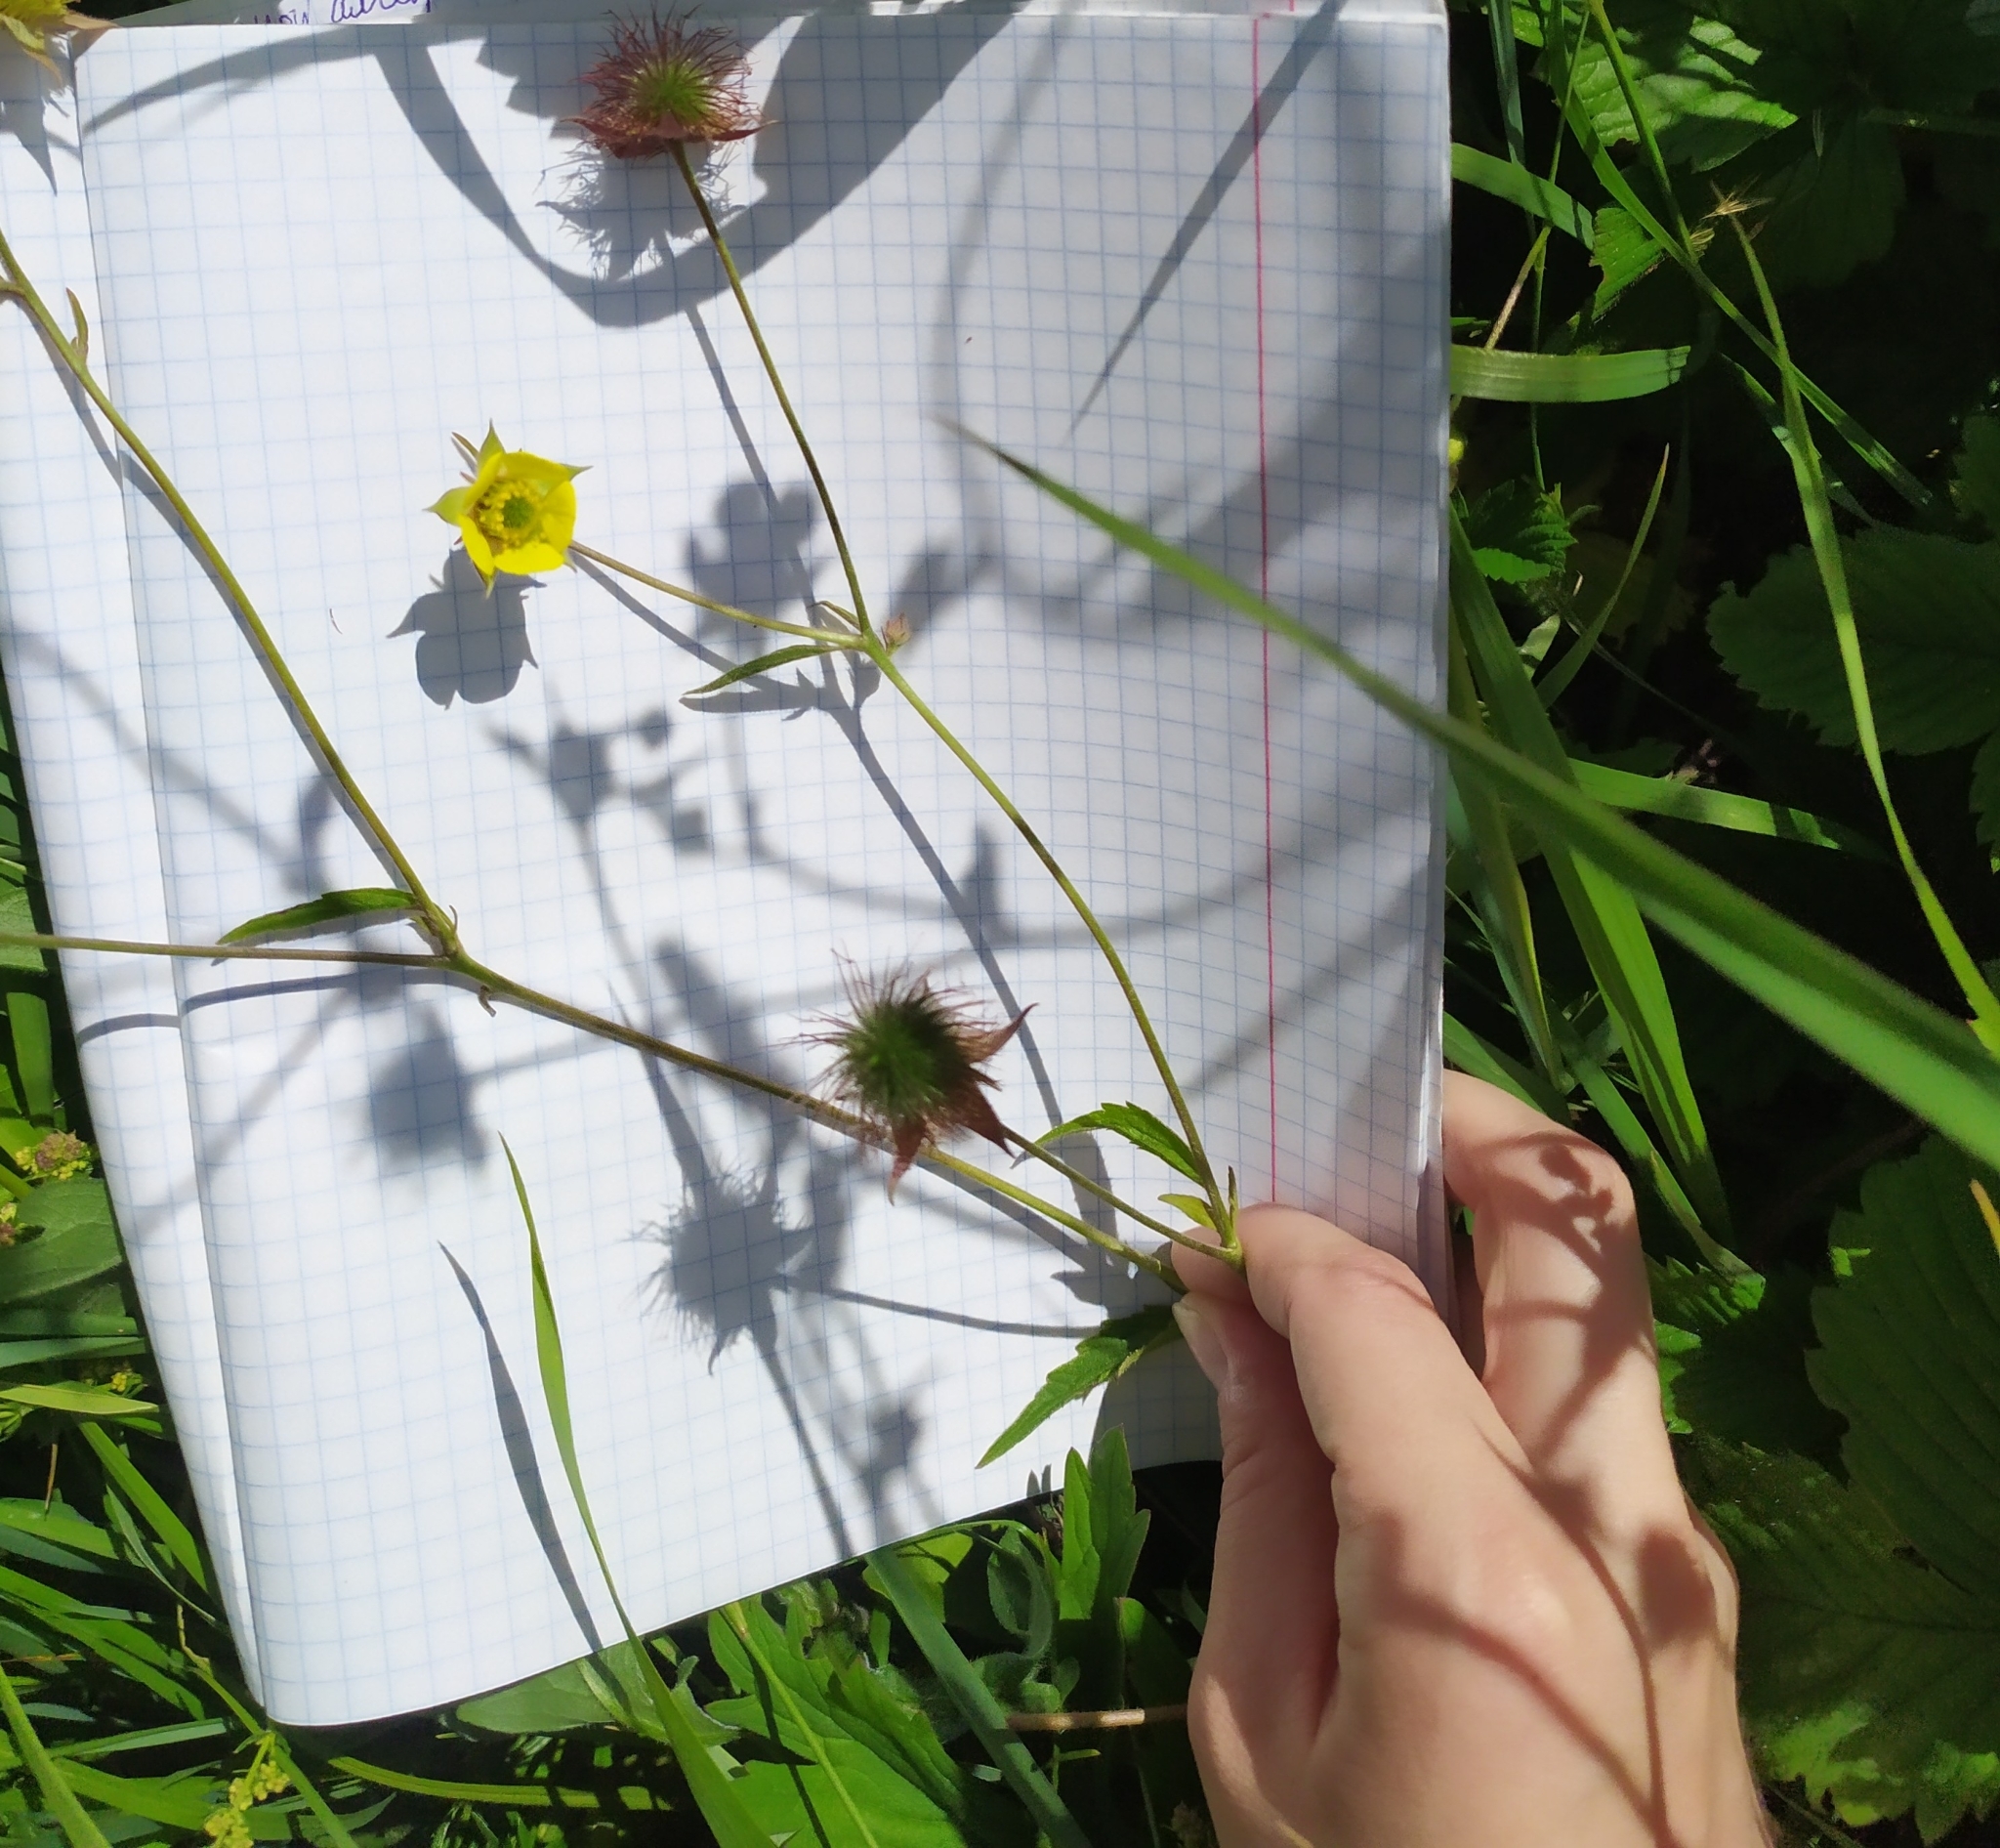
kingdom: Plantae
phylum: Tracheophyta
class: Magnoliopsida
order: Rosales
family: Rosaceae
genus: Geum
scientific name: Geum aleppicum
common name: Yellow avens
